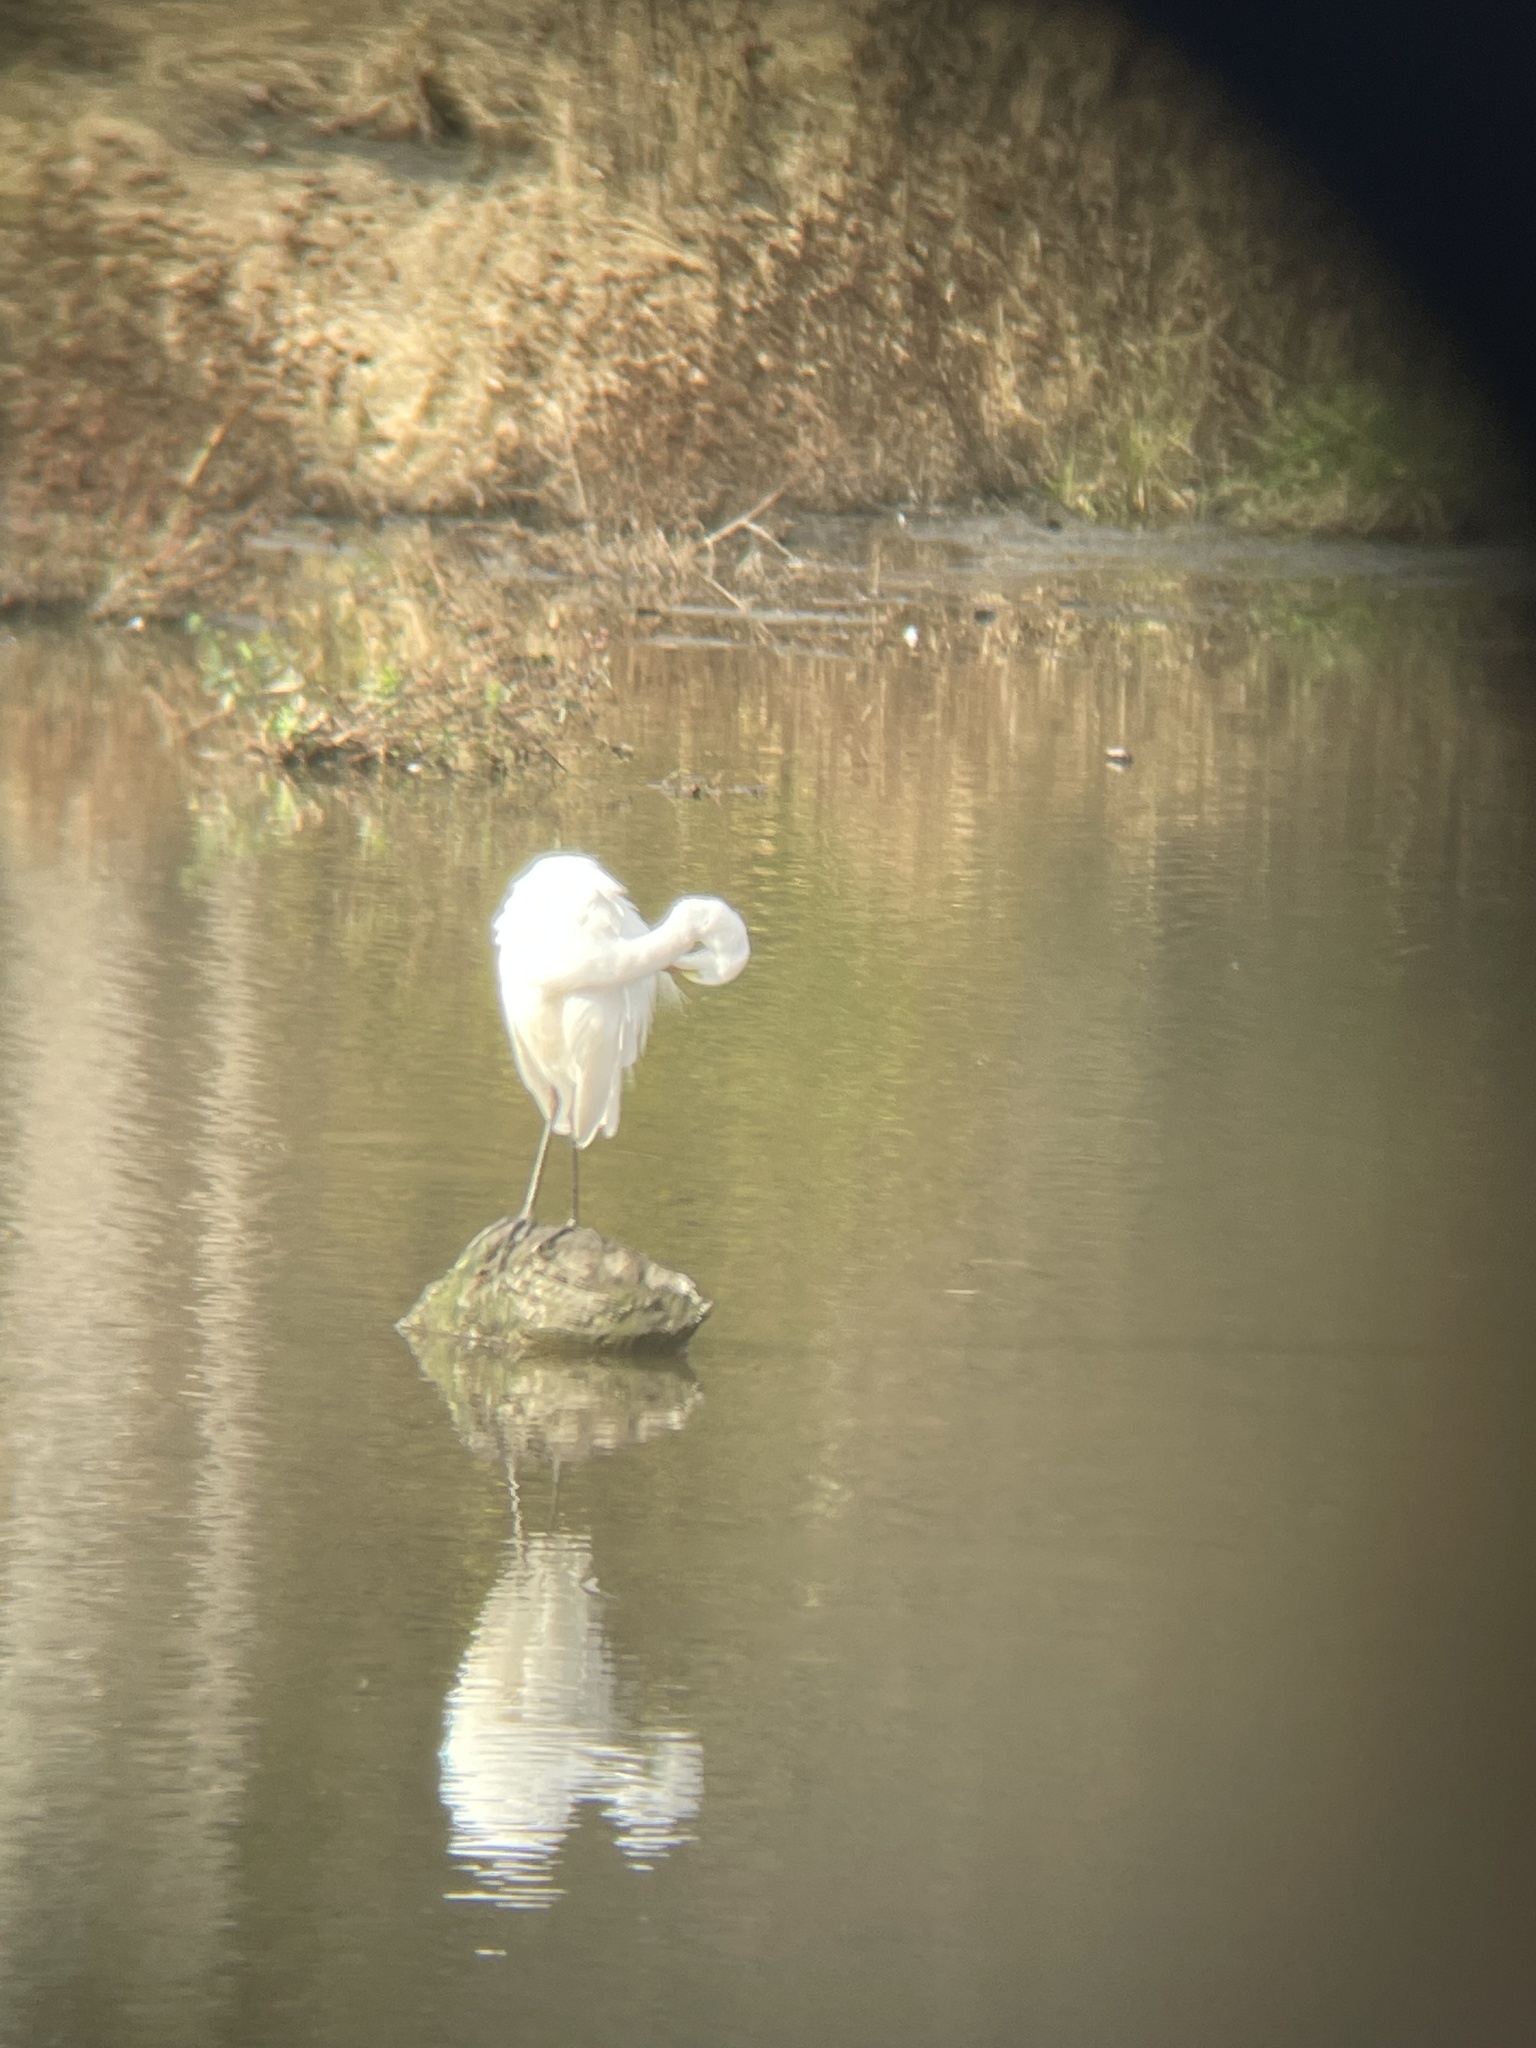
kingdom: Animalia
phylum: Chordata
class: Aves
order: Pelecaniformes
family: Ardeidae
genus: Ardea
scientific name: Ardea alba
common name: Great egret
